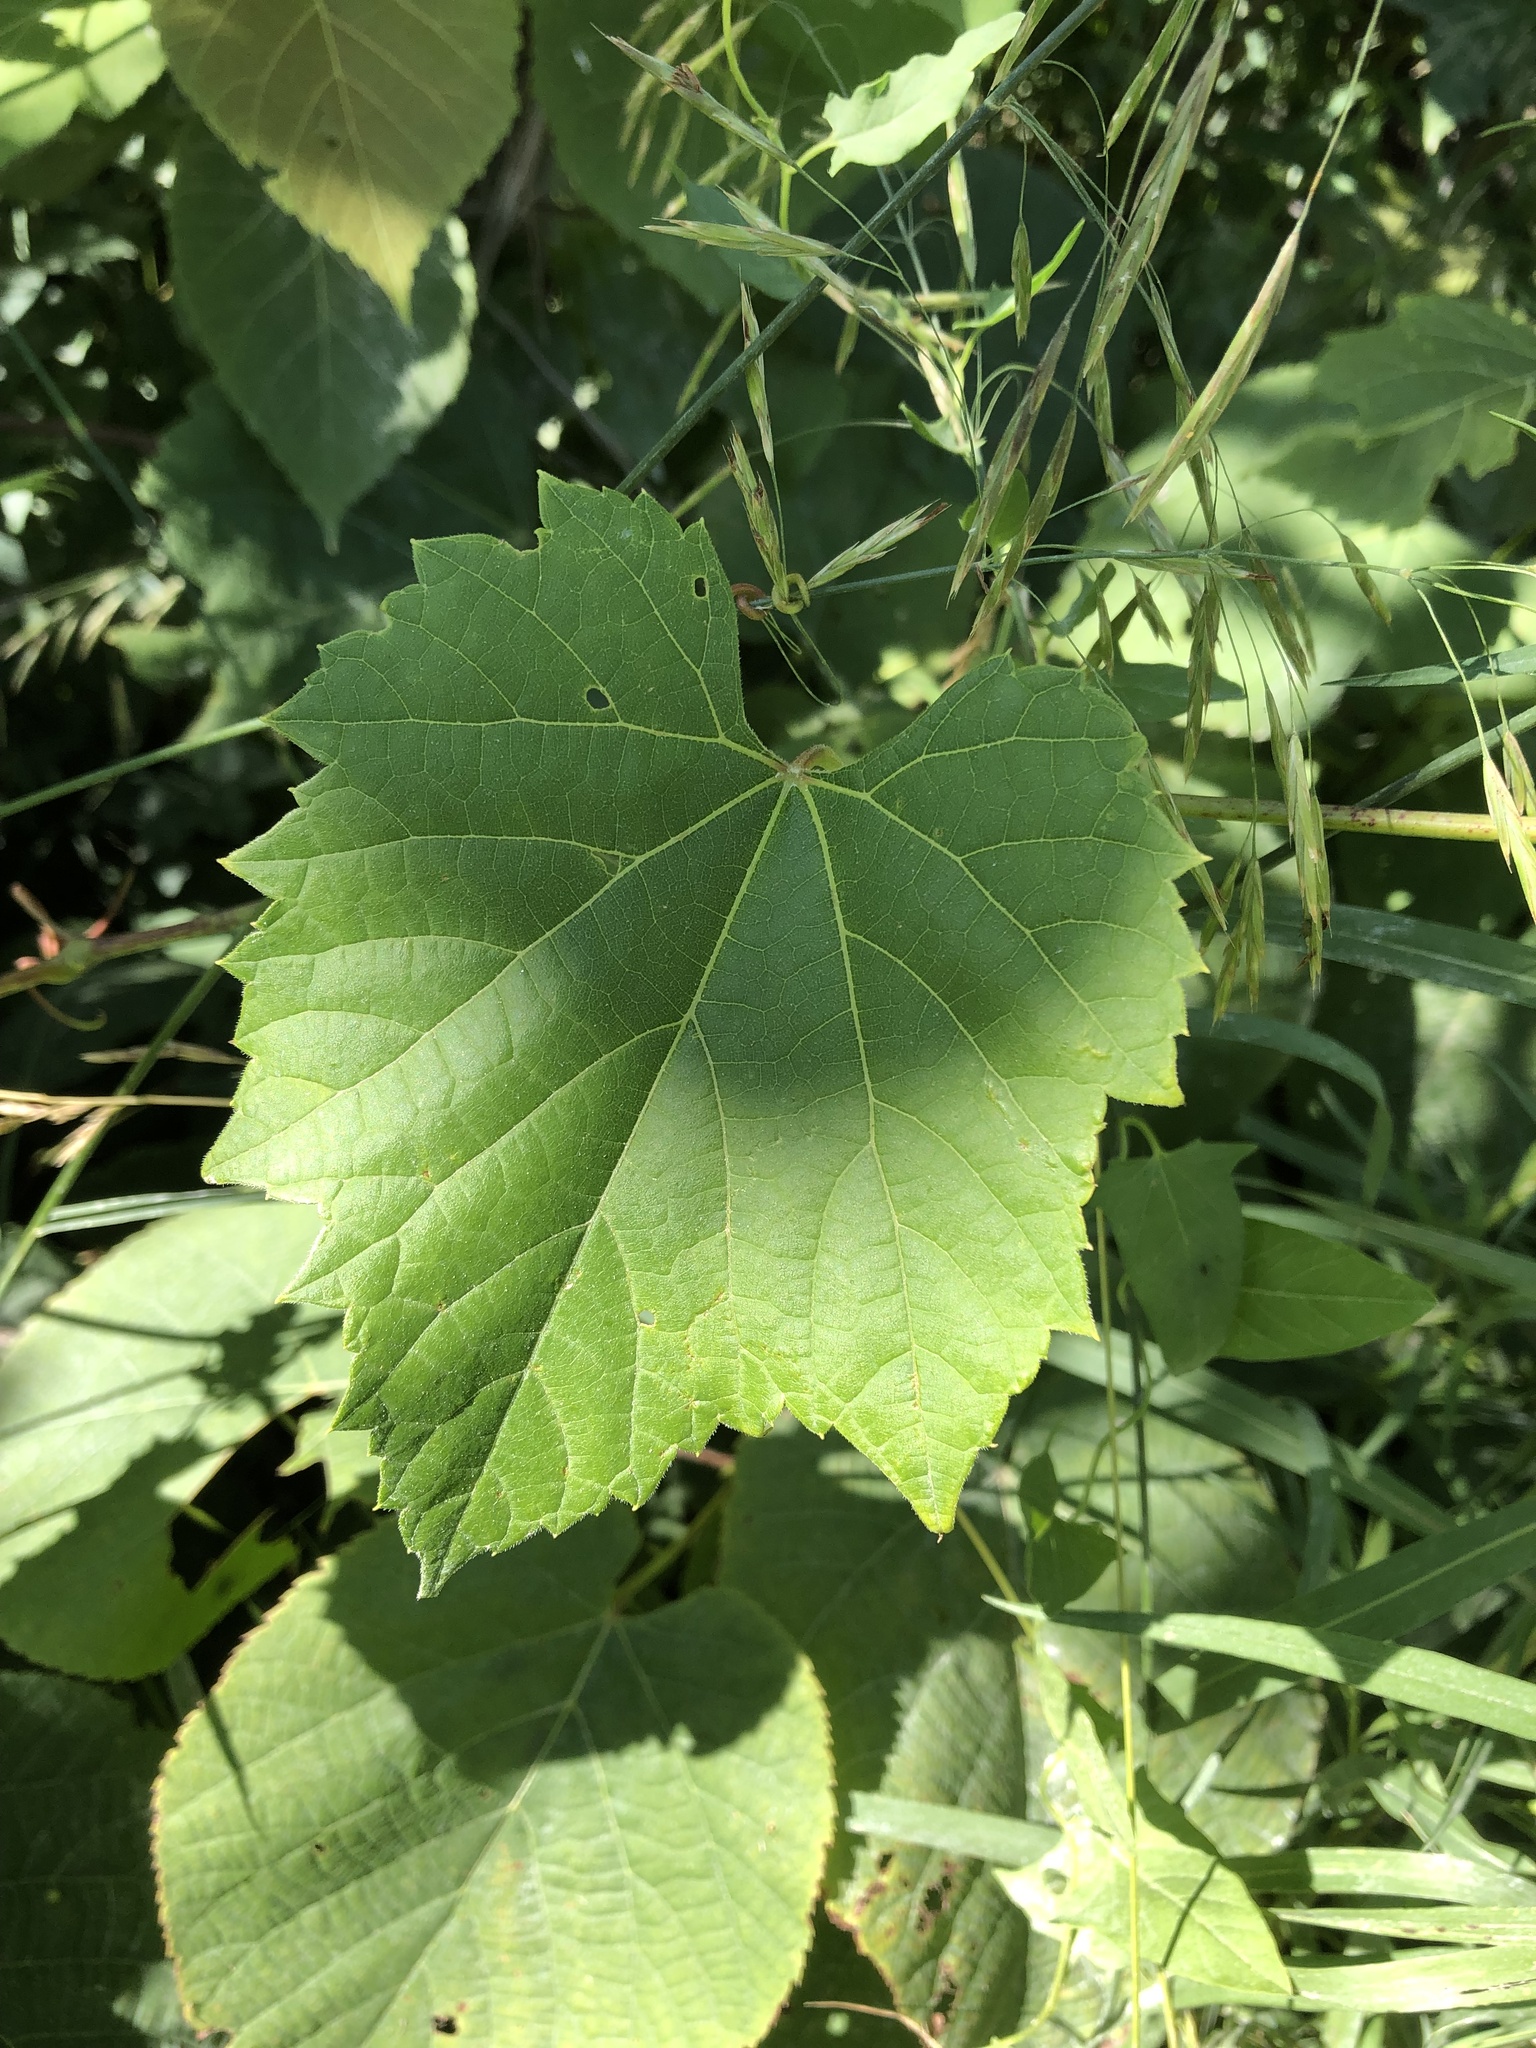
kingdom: Plantae
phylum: Tracheophyta
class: Magnoliopsida
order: Vitales
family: Vitaceae
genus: Vitis
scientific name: Vitis riparia
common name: Frost grape
